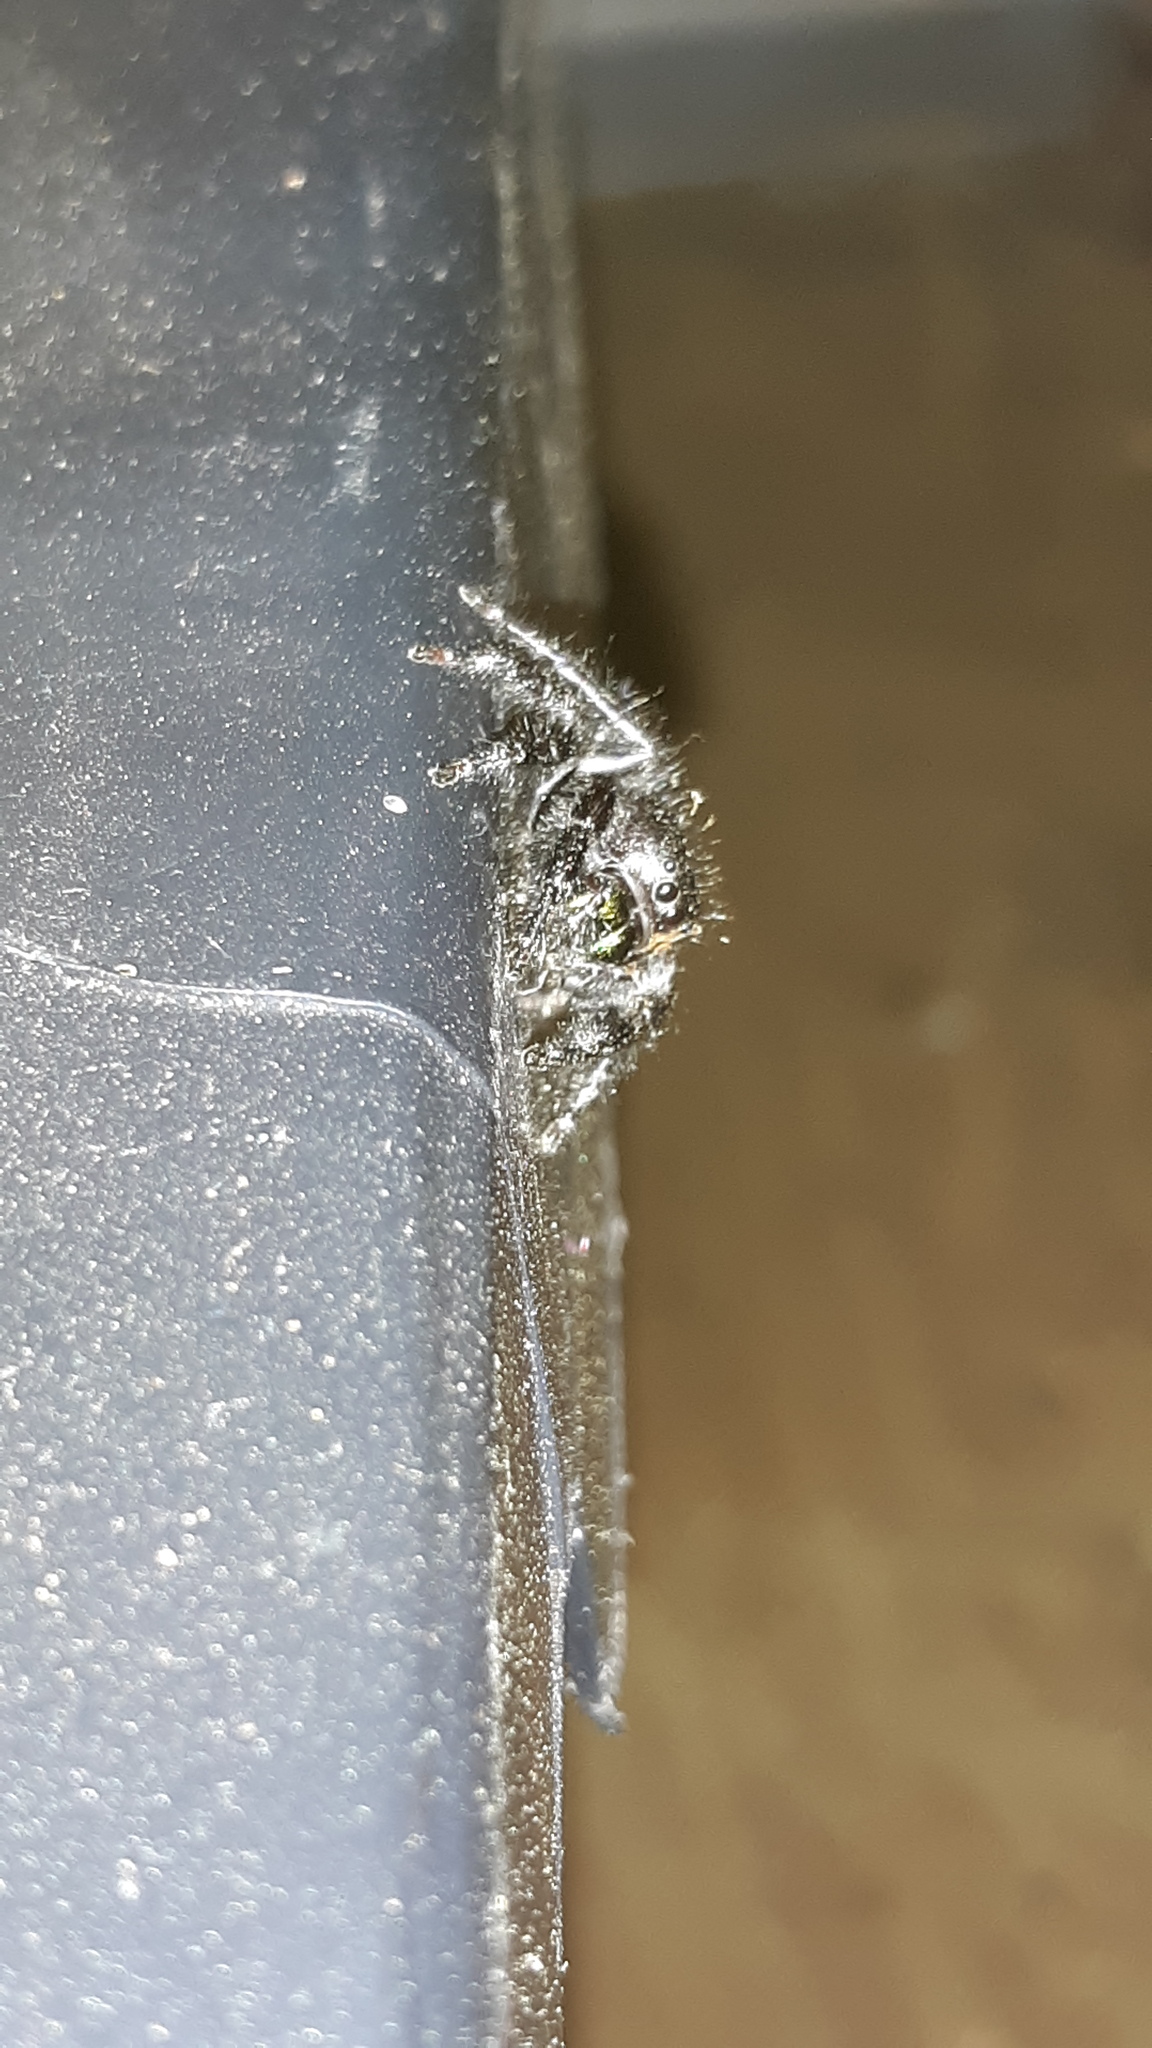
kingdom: Animalia
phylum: Arthropoda
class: Arachnida
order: Araneae
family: Salticidae
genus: Phidippus
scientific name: Phidippus audax
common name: Bold jumper
